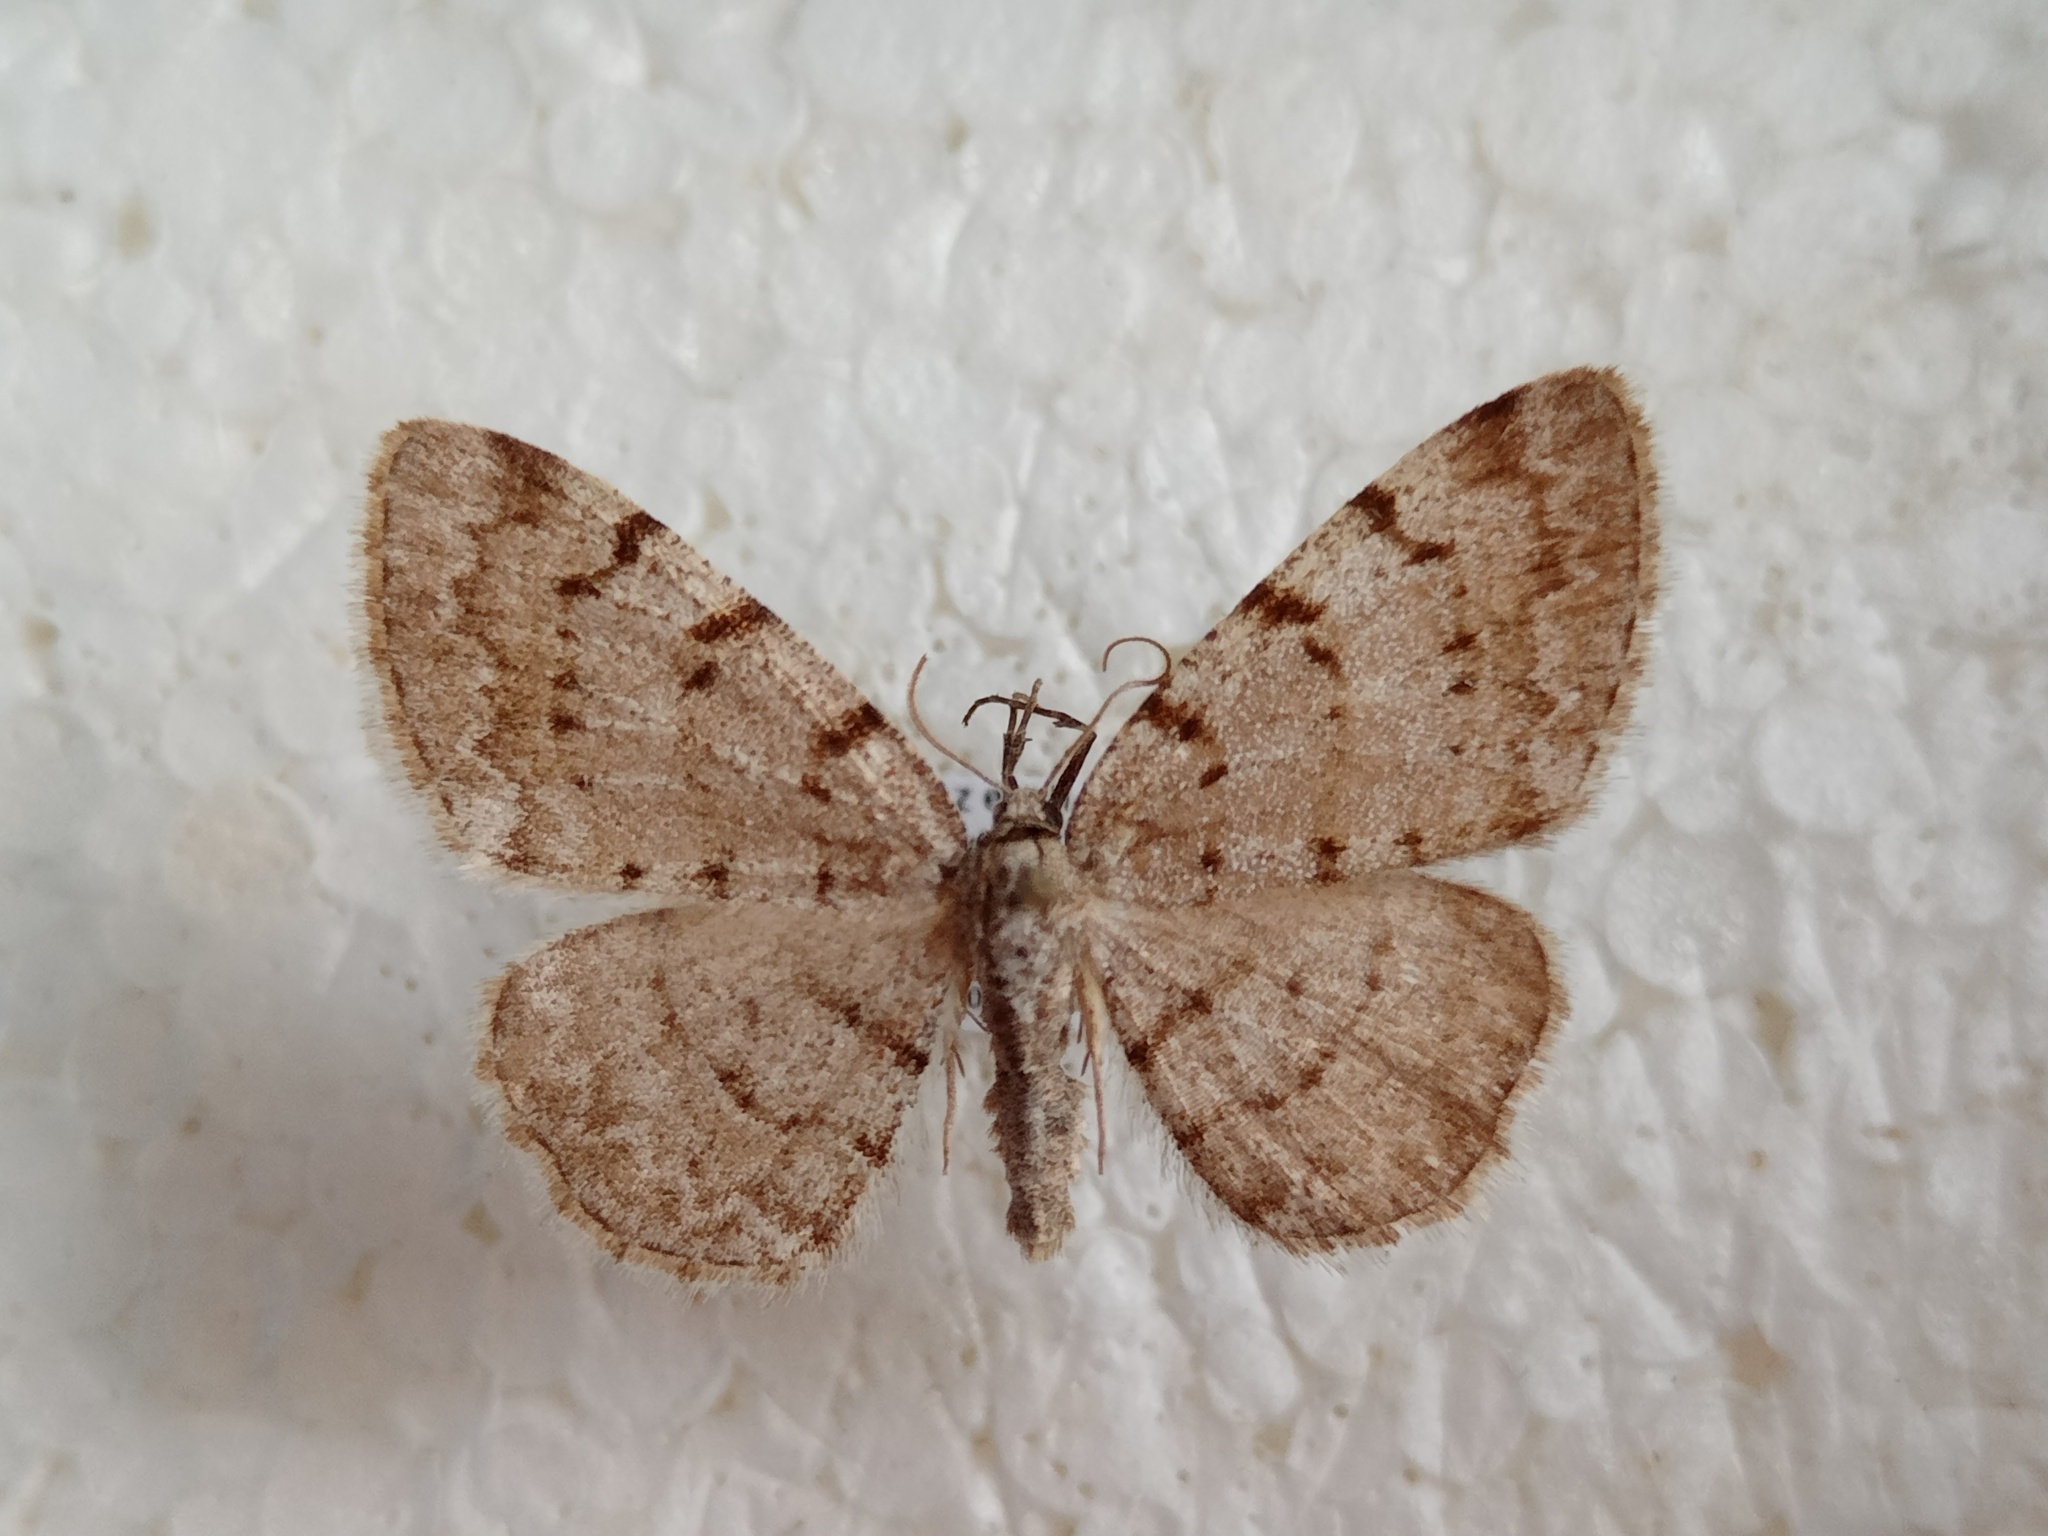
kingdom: Animalia
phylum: Arthropoda
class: Insecta
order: Lepidoptera
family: Geometridae
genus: Aethalura
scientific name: Aethalura punctulata
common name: Grey birch
